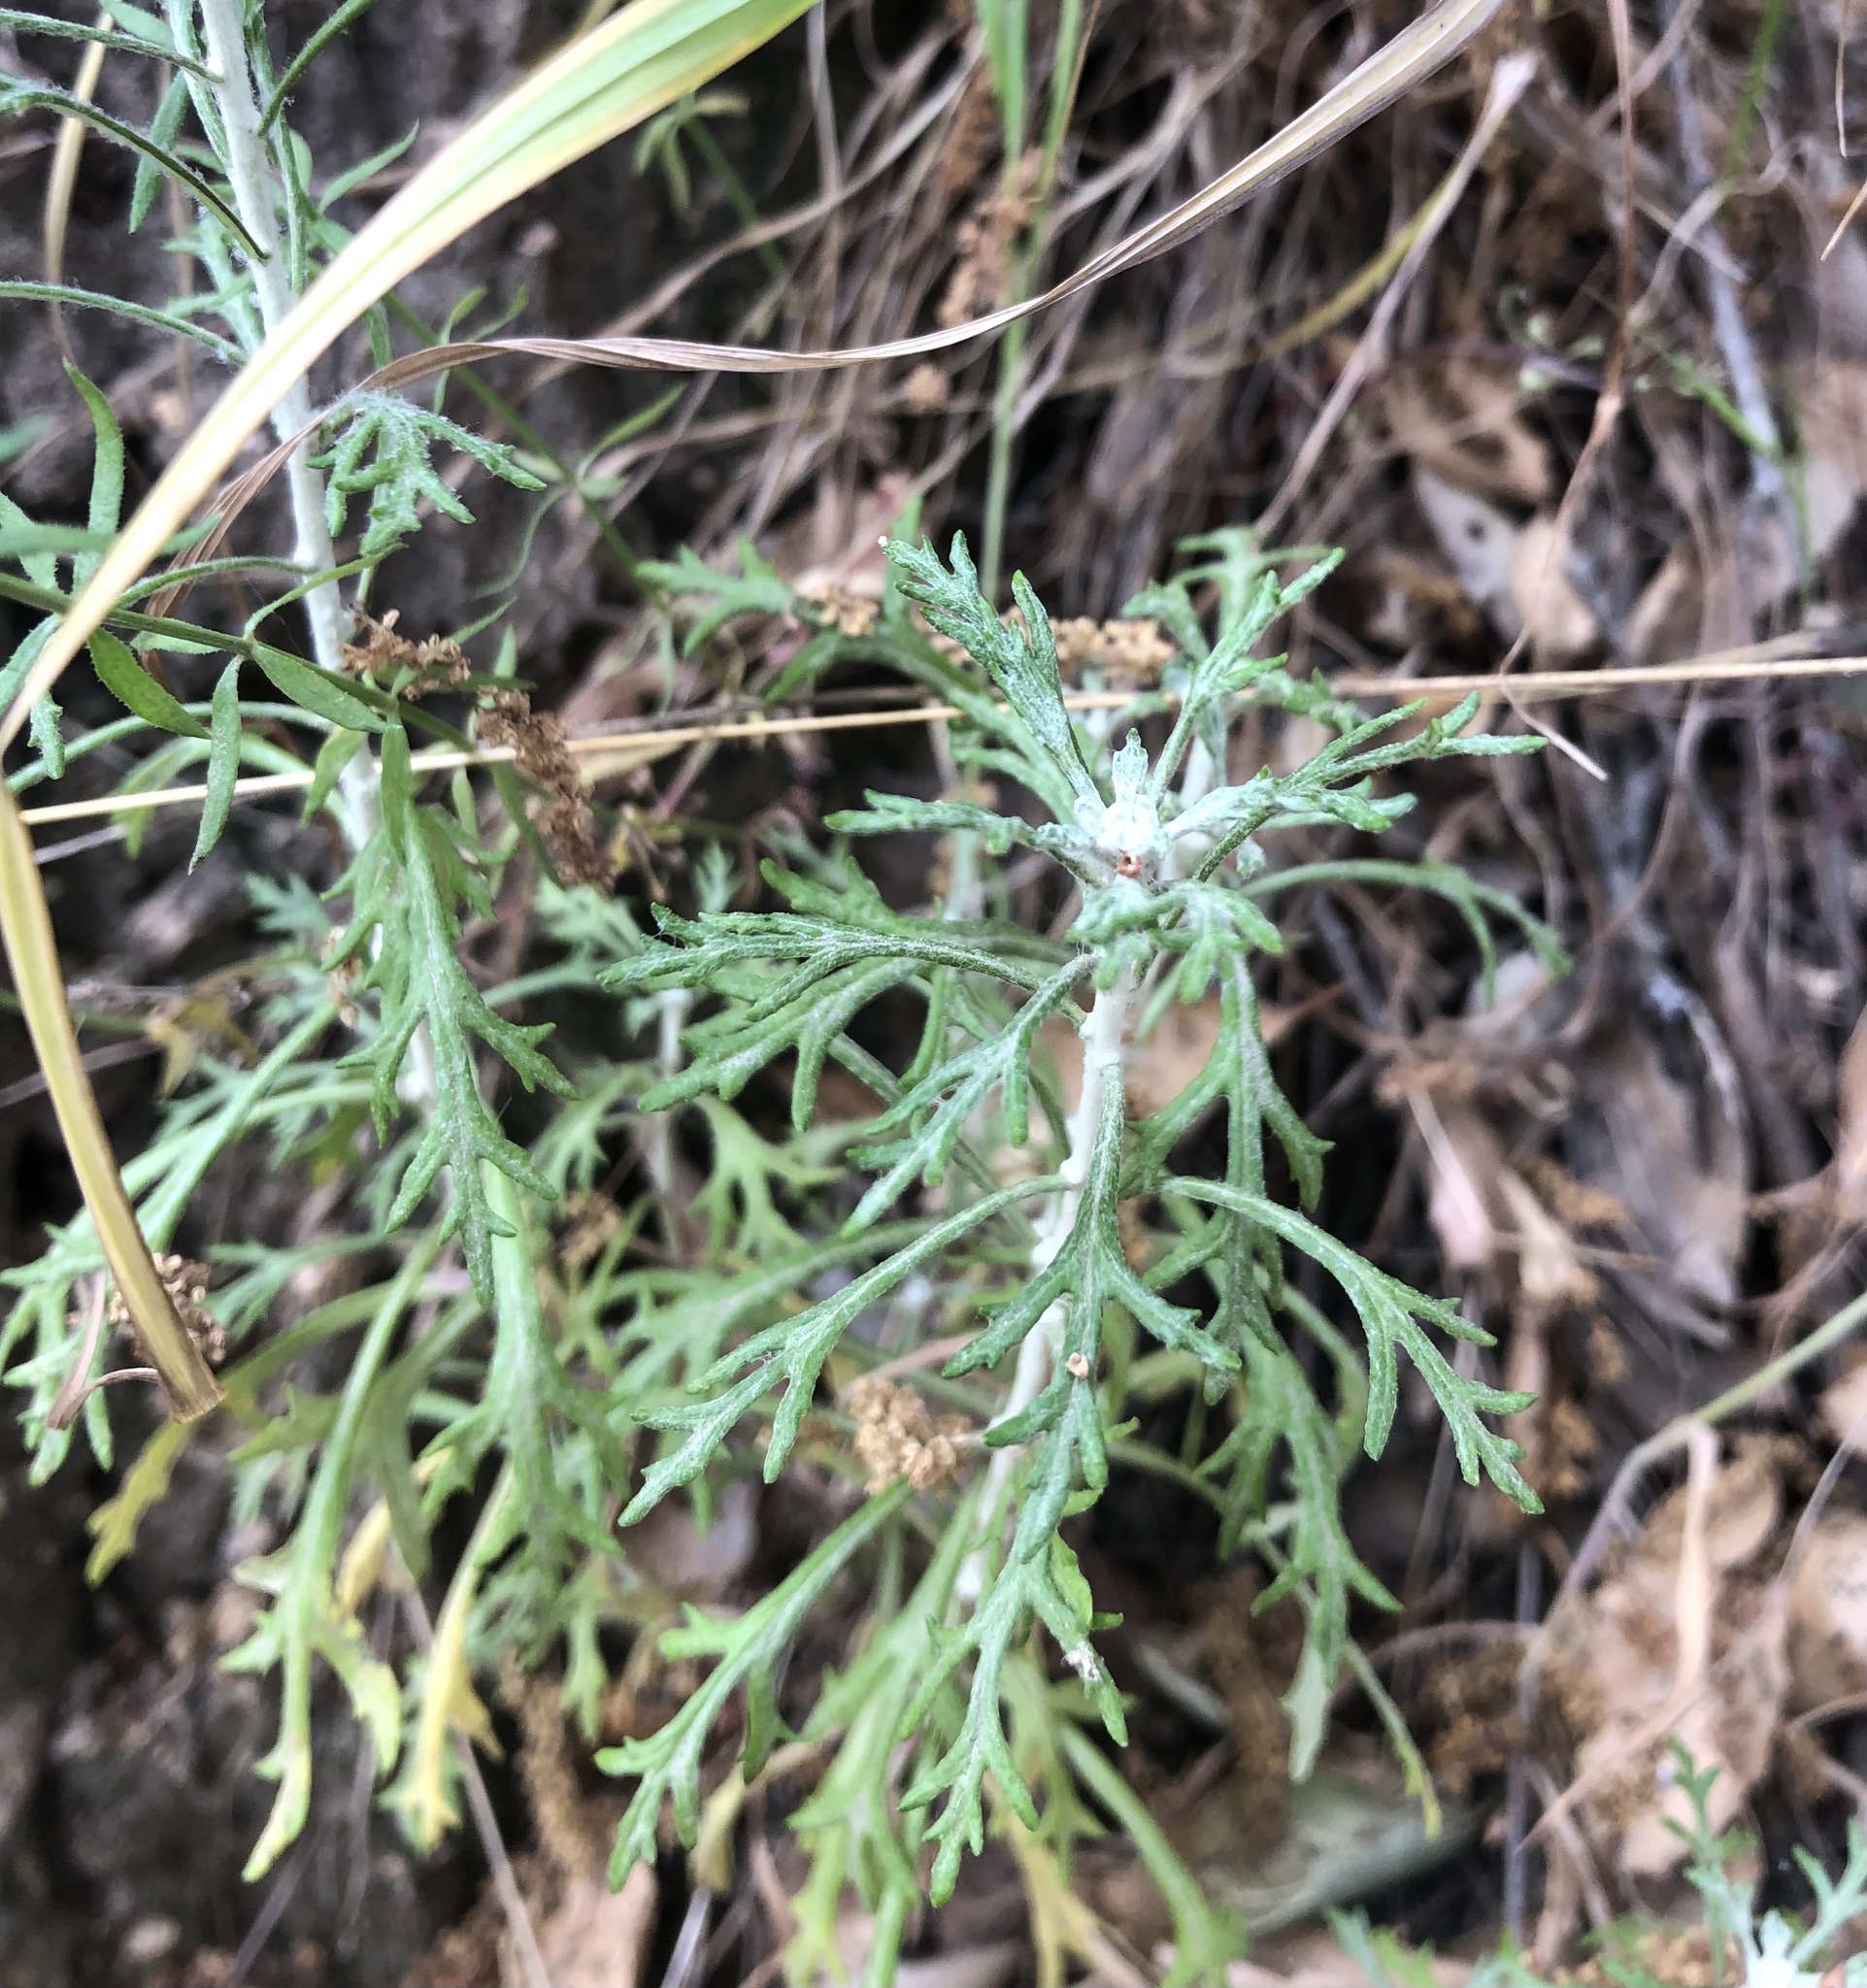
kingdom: Plantae
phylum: Tracheophyta
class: Magnoliopsida
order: Asterales
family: Asteraceae
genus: Eriophyllum
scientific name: Eriophyllum confertiflorum
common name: Golden-yarrow
